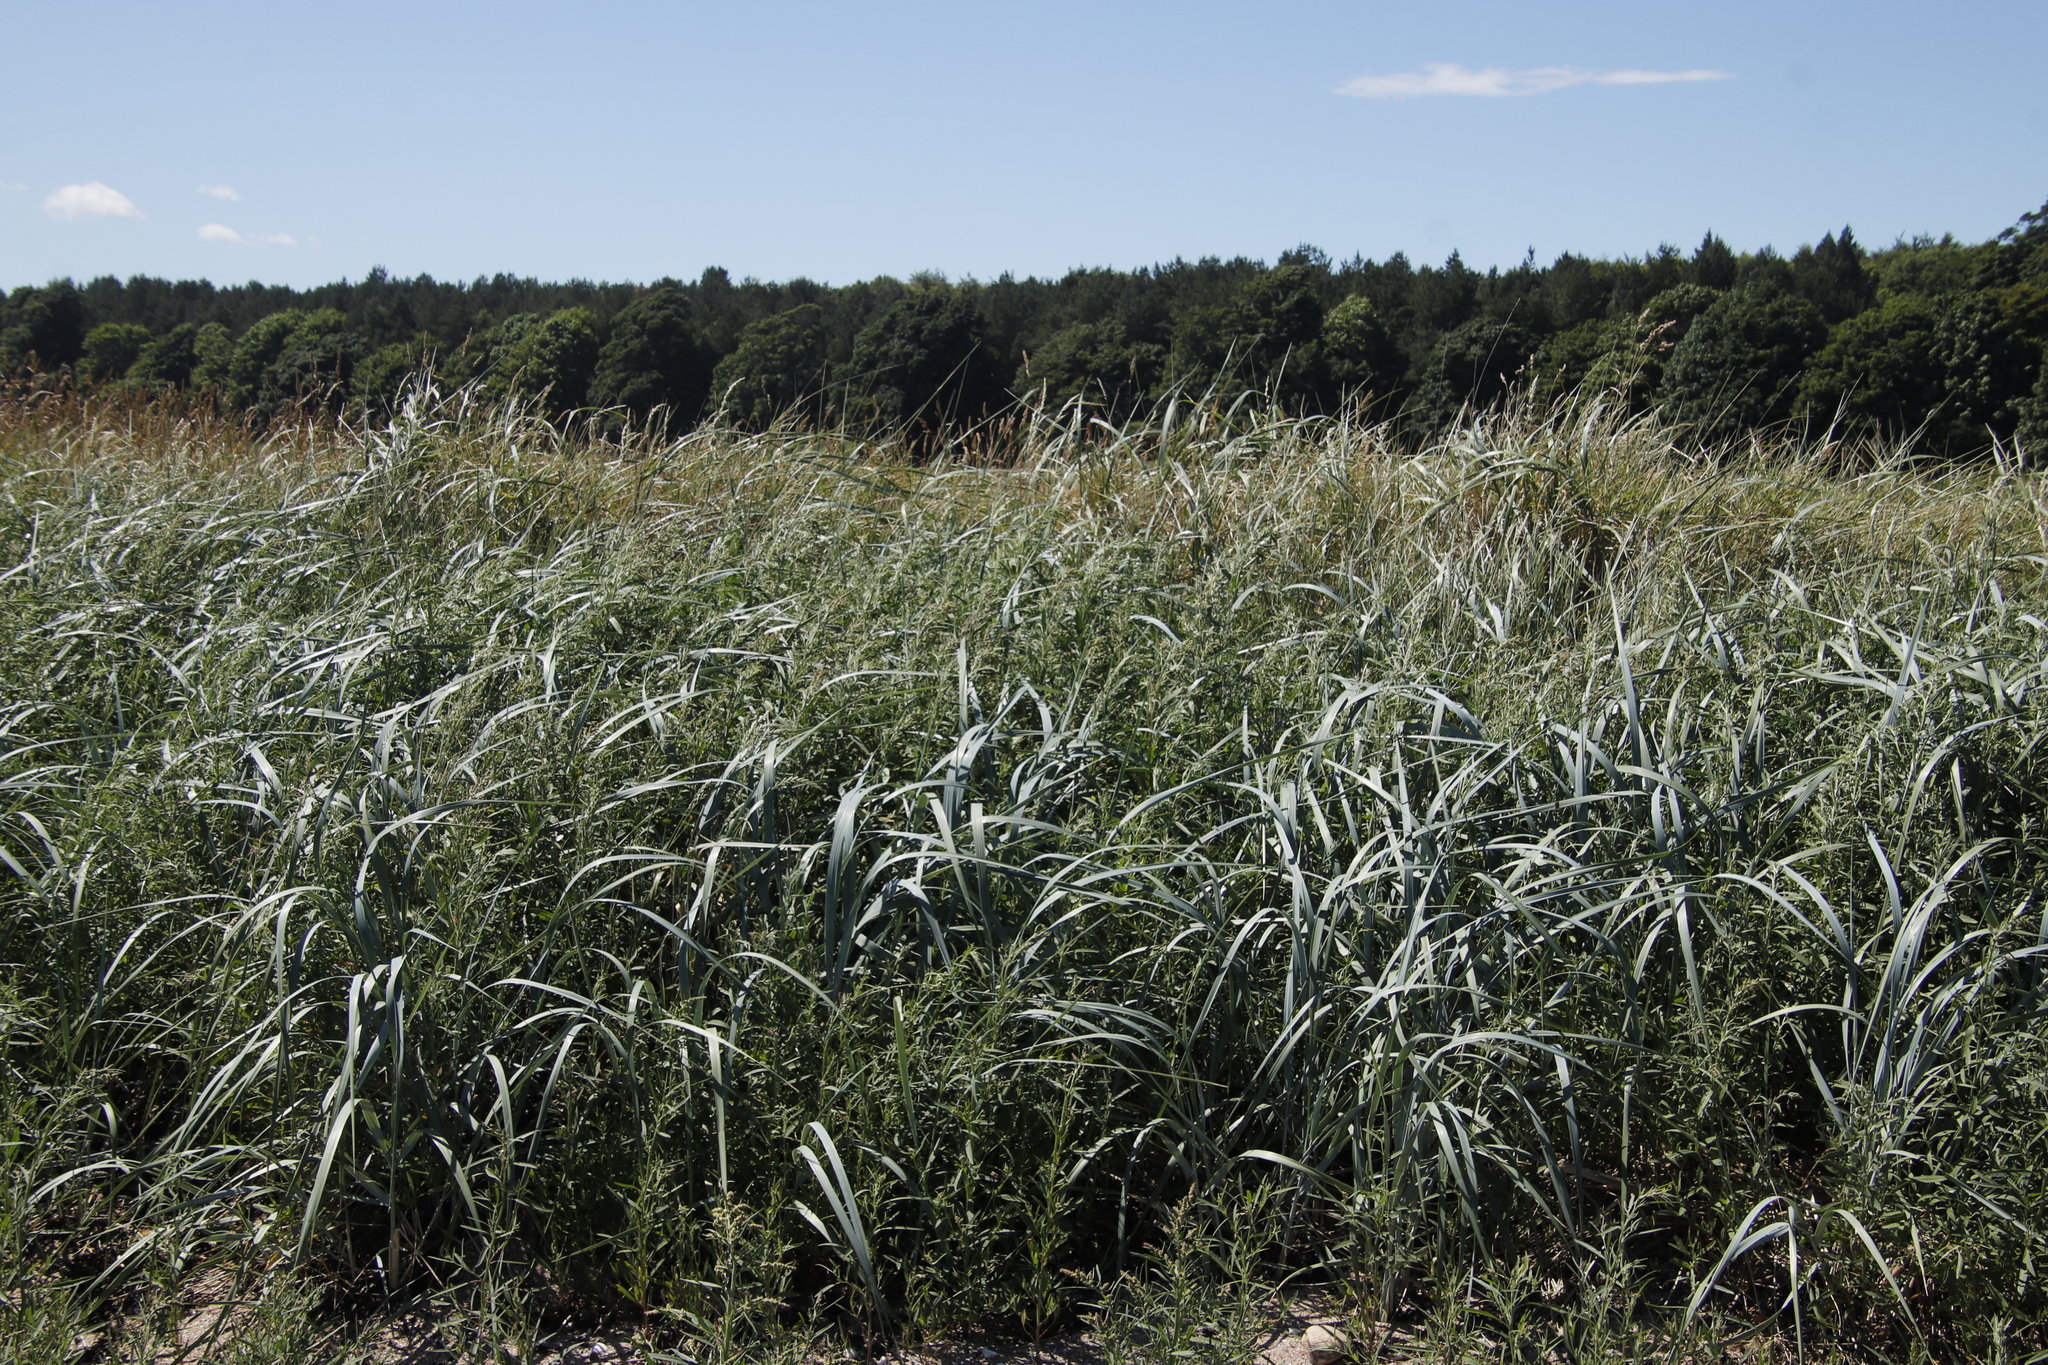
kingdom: Plantae
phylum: Tracheophyta
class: Liliopsida
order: Poales
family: Poaceae
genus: Leymus
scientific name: Leymus arenarius
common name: Lyme-grass
